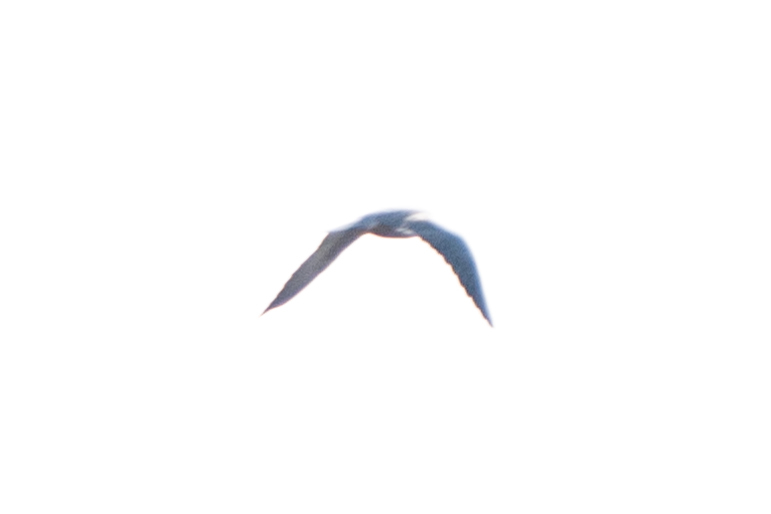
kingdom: Animalia
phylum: Chordata
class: Aves
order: Falconiformes
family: Falconidae
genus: Falco
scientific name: Falco peregrinus
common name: Peregrine falcon
